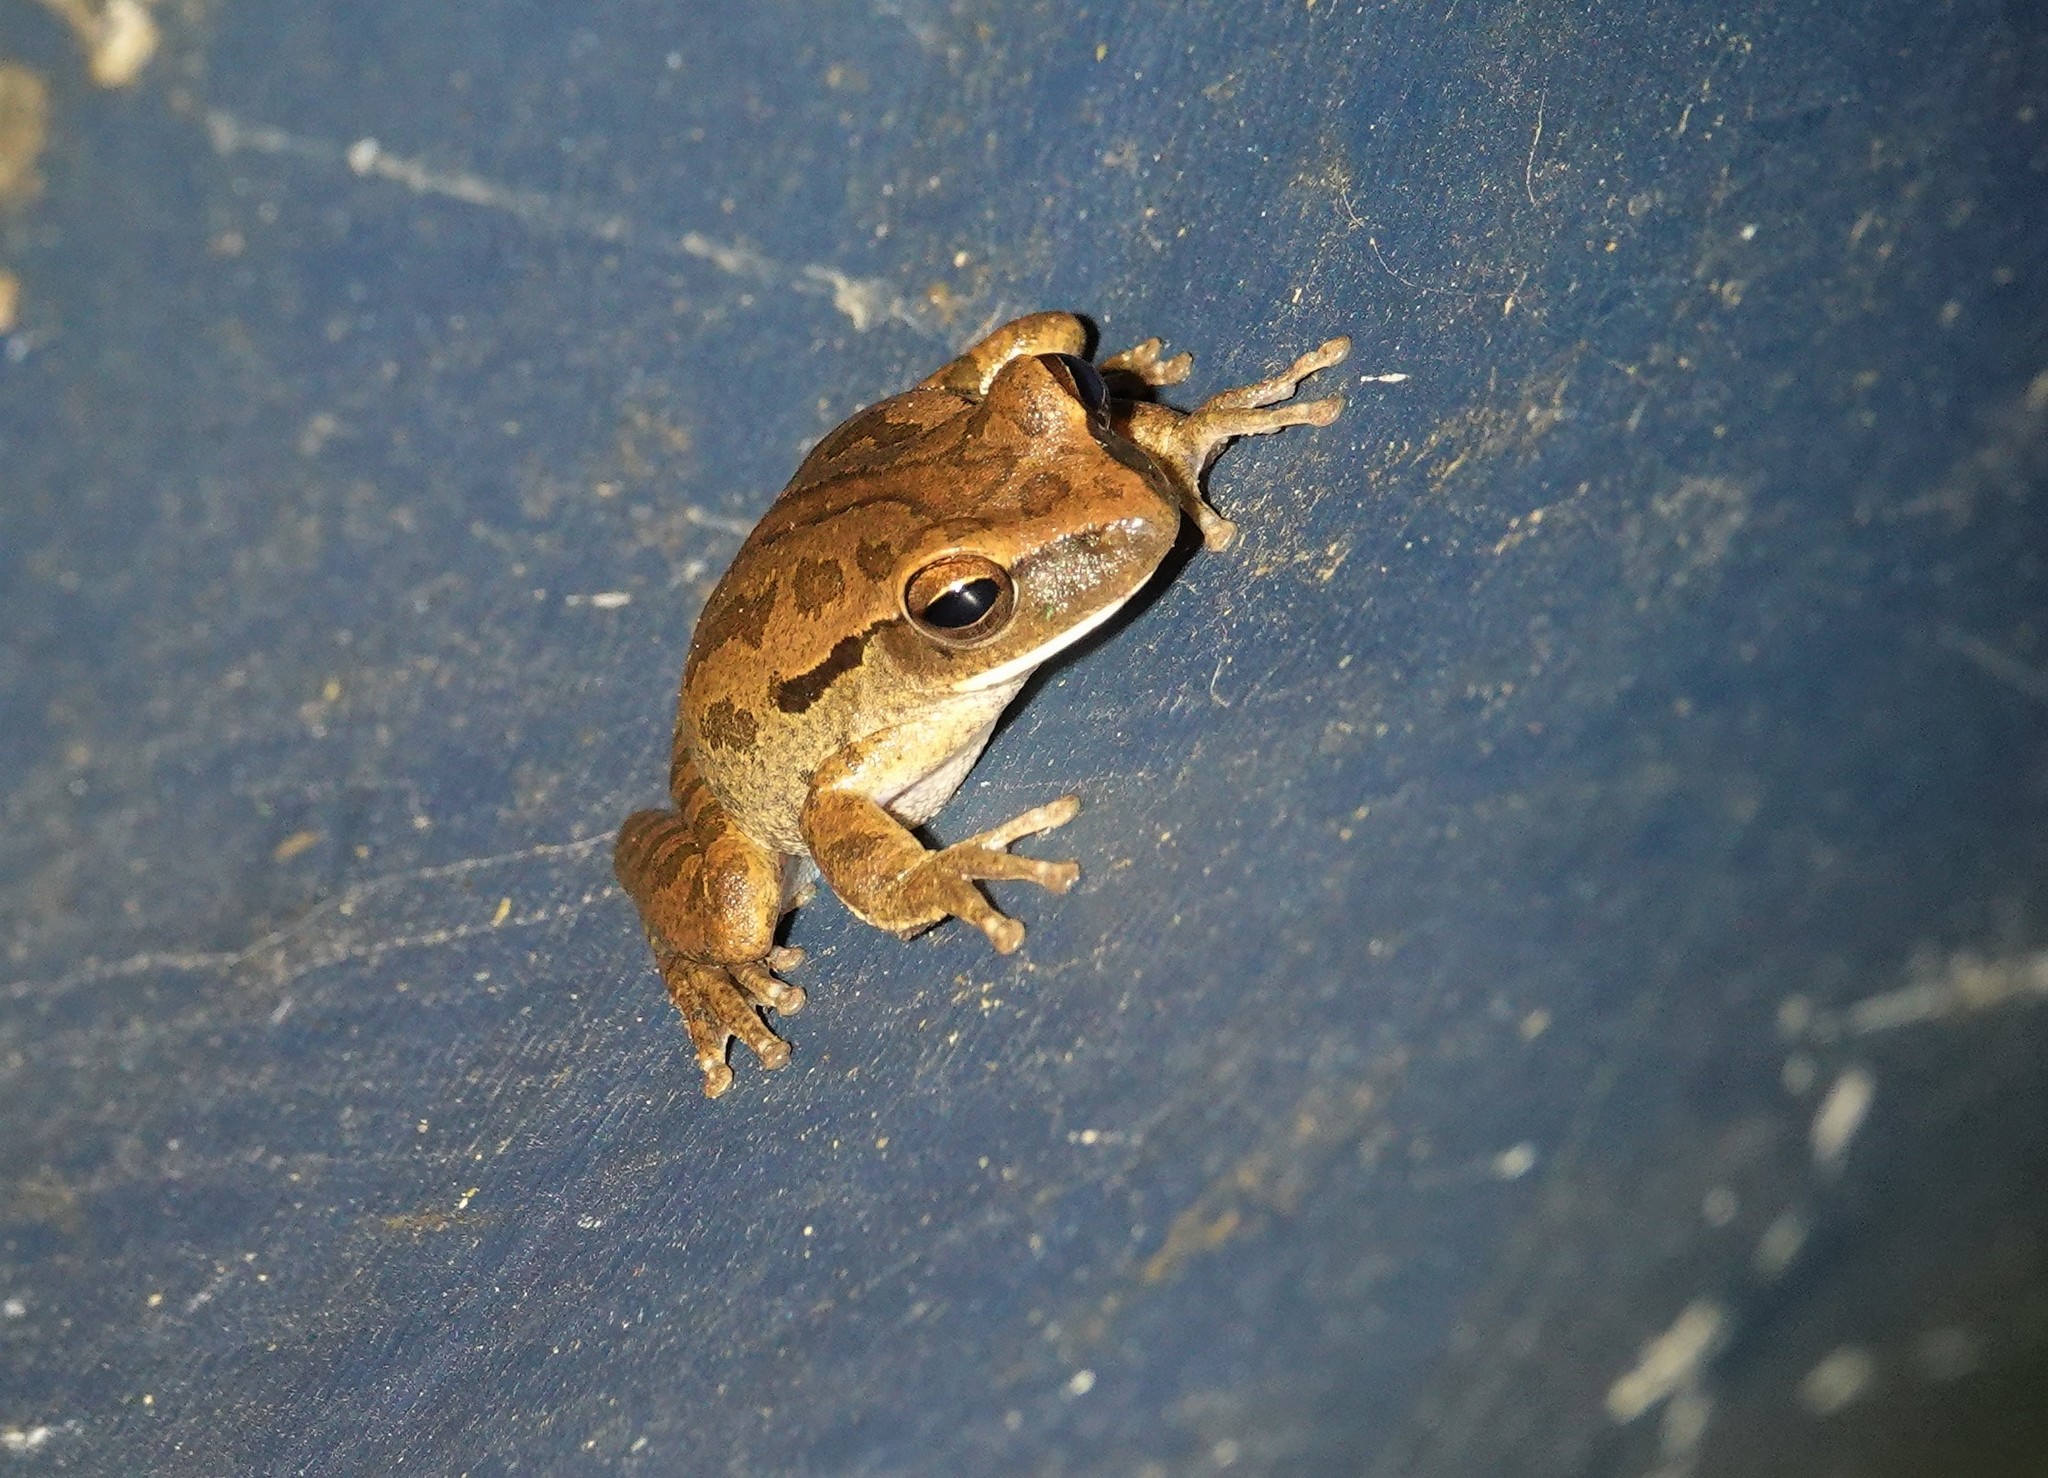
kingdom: Animalia
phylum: Chordata
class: Amphibia
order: Anura
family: Hylidae
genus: Boana
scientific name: Boana raniceps
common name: Chaco treefrog
